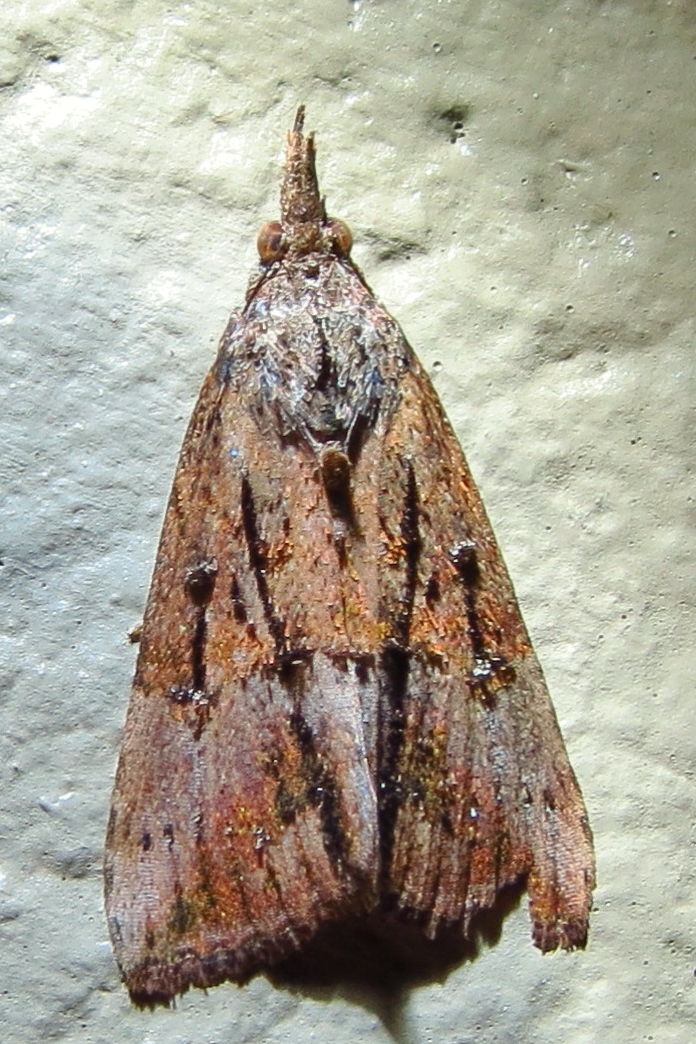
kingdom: Animalia
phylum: Arthropoda
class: Insecta
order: Lepidoptera
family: Erebidae
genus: Hypena
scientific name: Hypena scabra
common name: Green cloverworm
